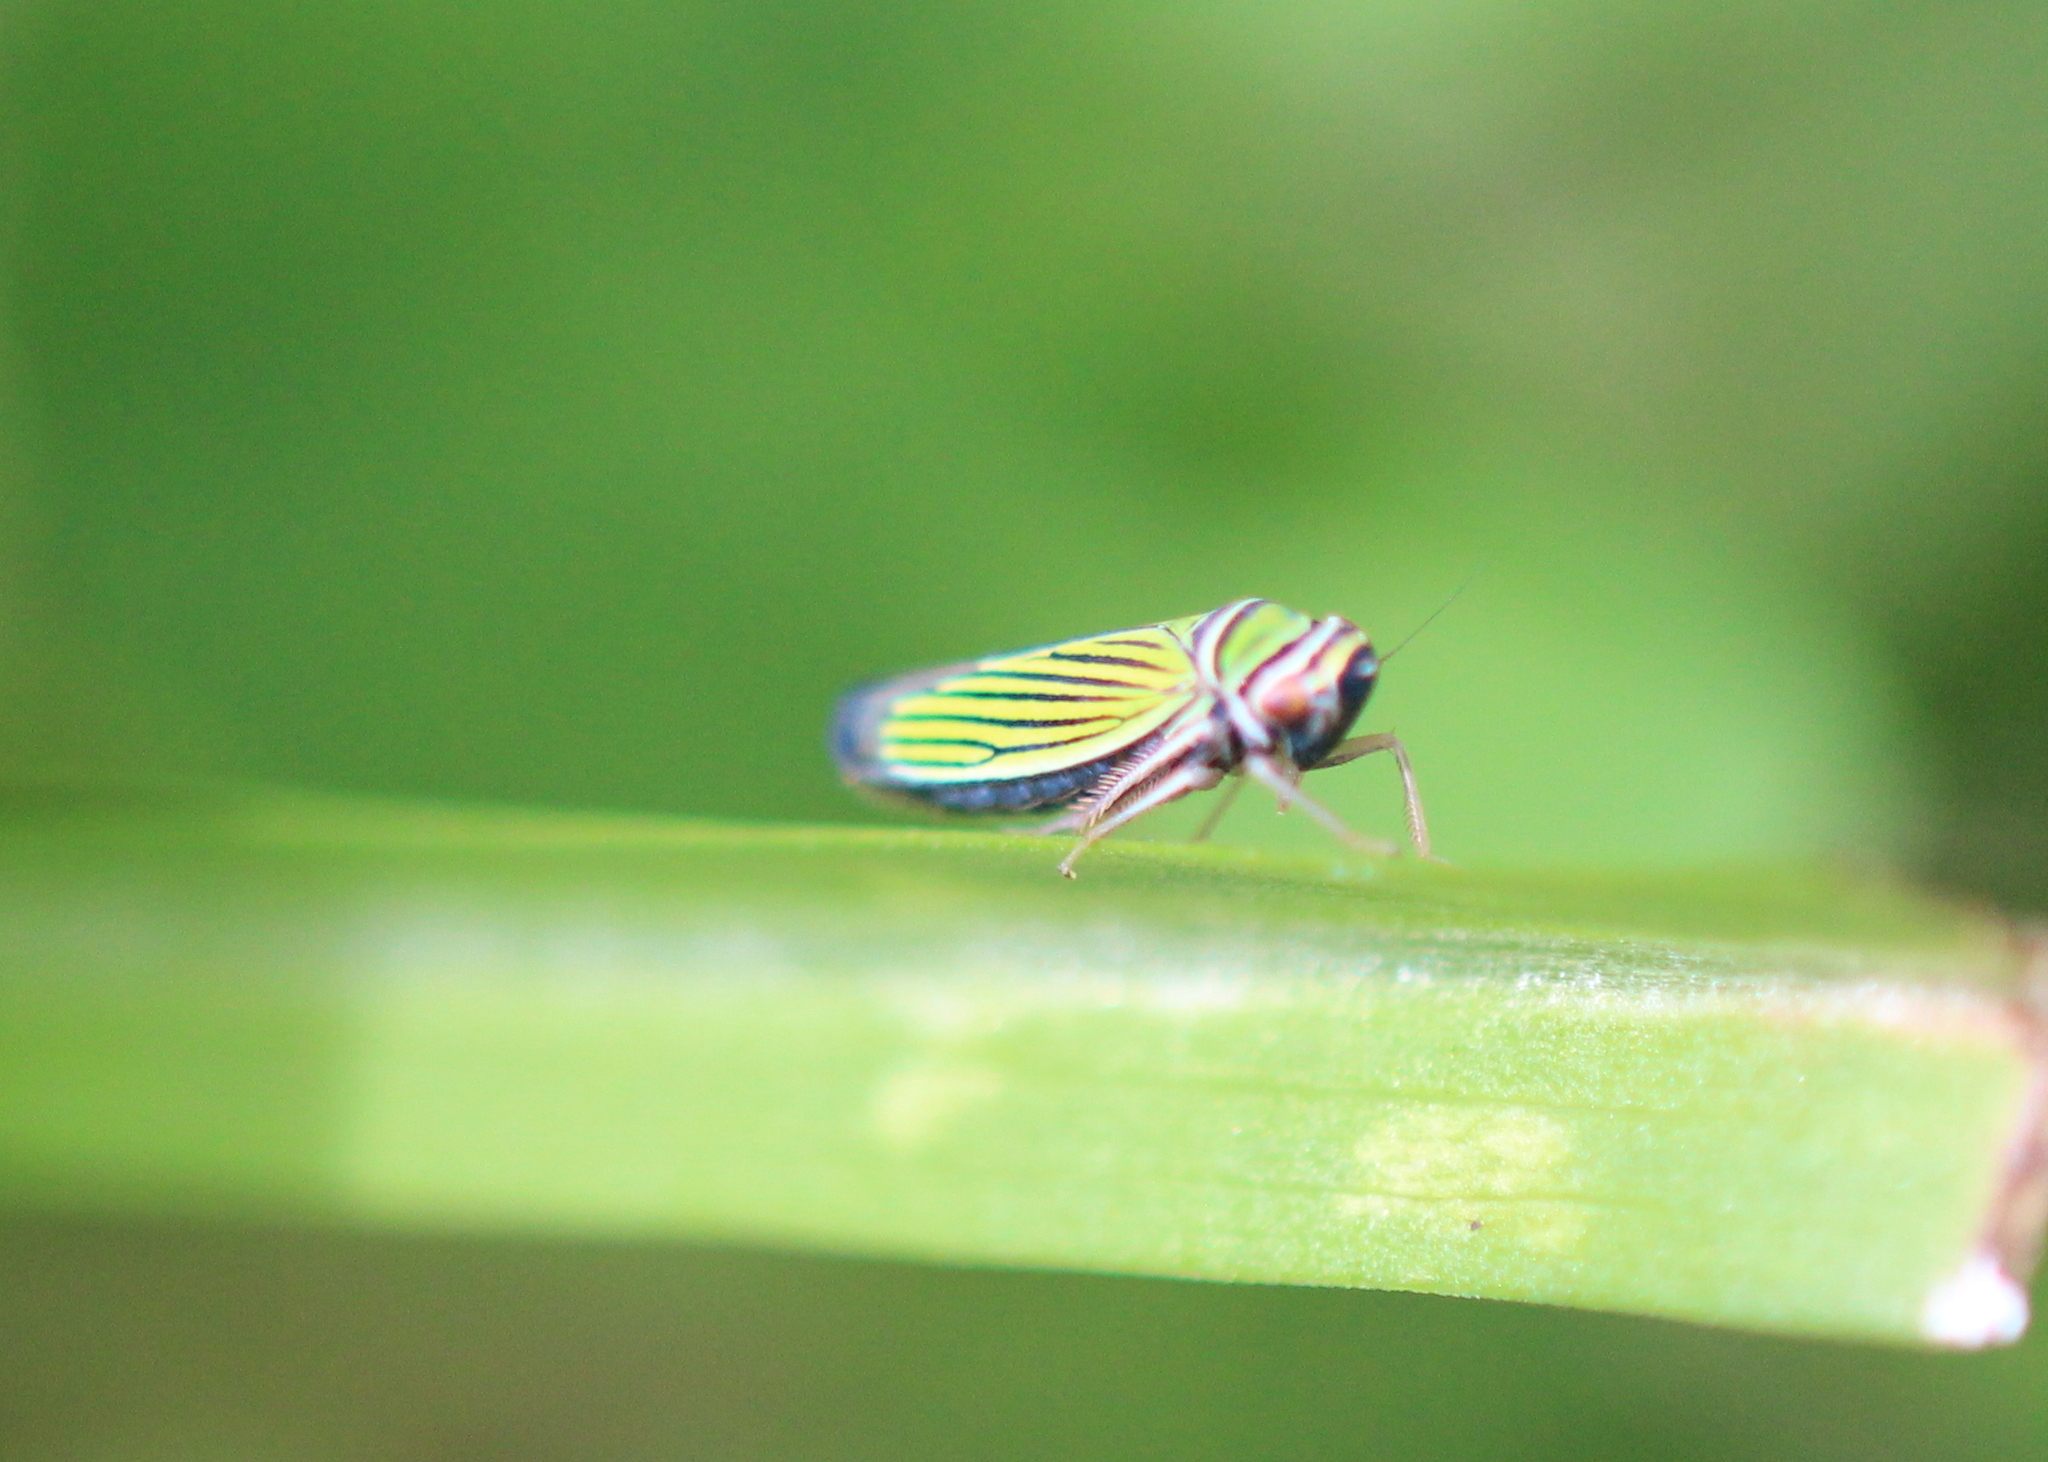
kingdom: Animalia
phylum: Arthropoda
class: Insecta
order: Hemiptera
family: Cicadellidae
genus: Tylozygus
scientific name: Tylozygus bifidus
